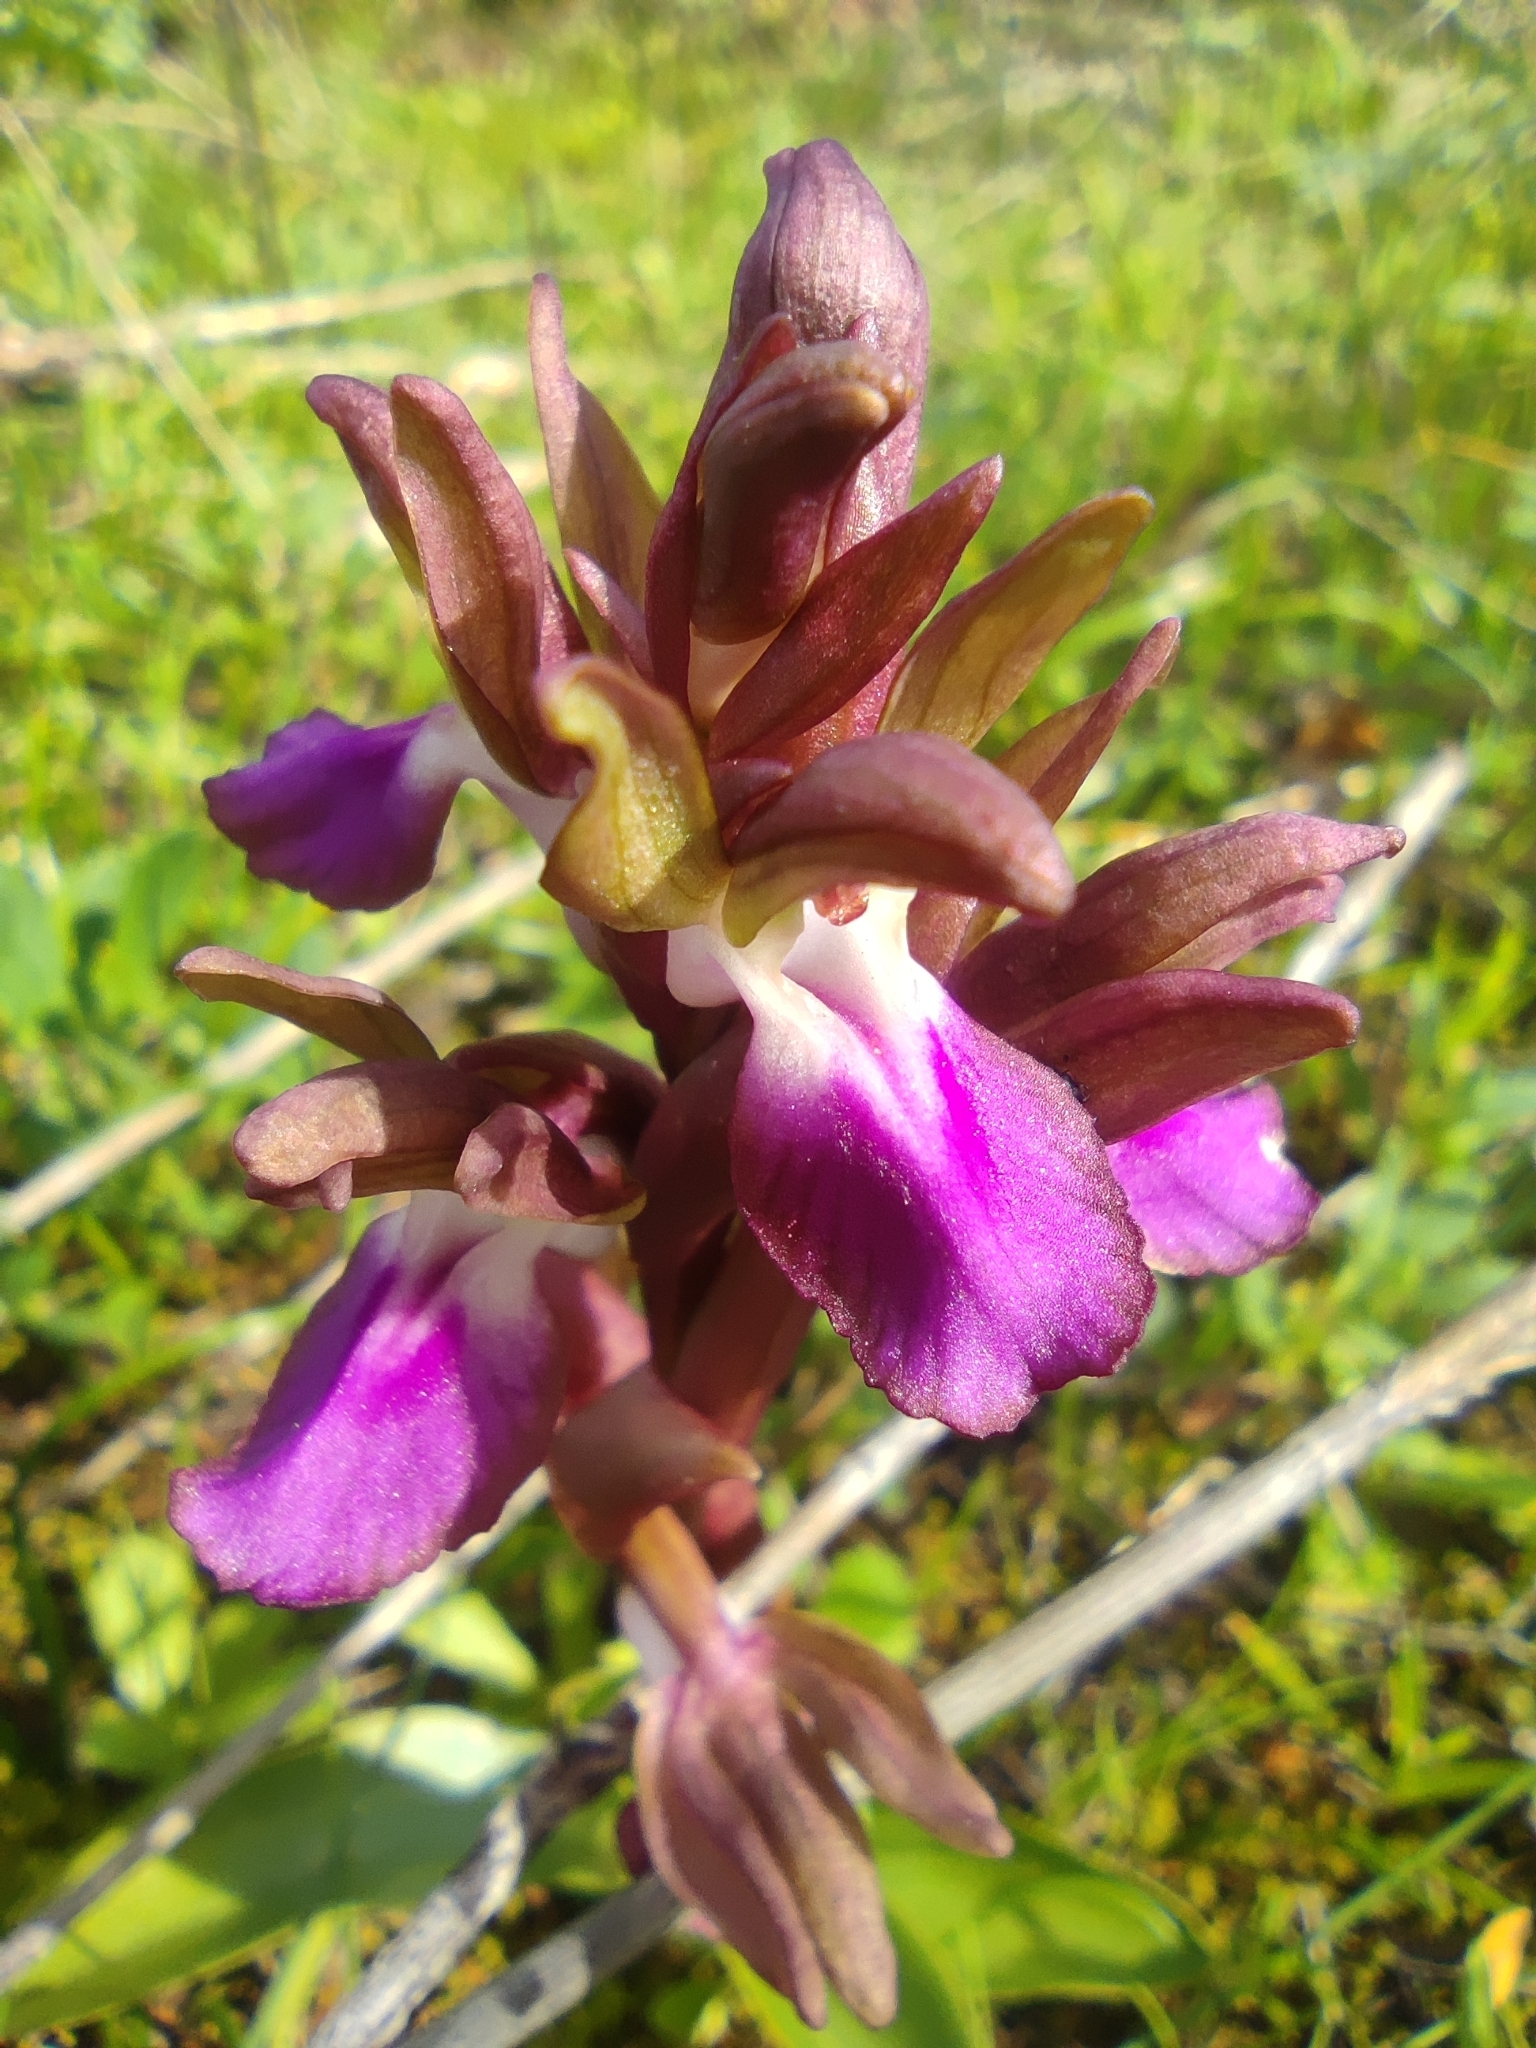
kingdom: Plantae
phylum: Tracheophyta
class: Liliopsida
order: Asparagales
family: Orchidaceae
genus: Anacamptis
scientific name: Anacamptis collina
